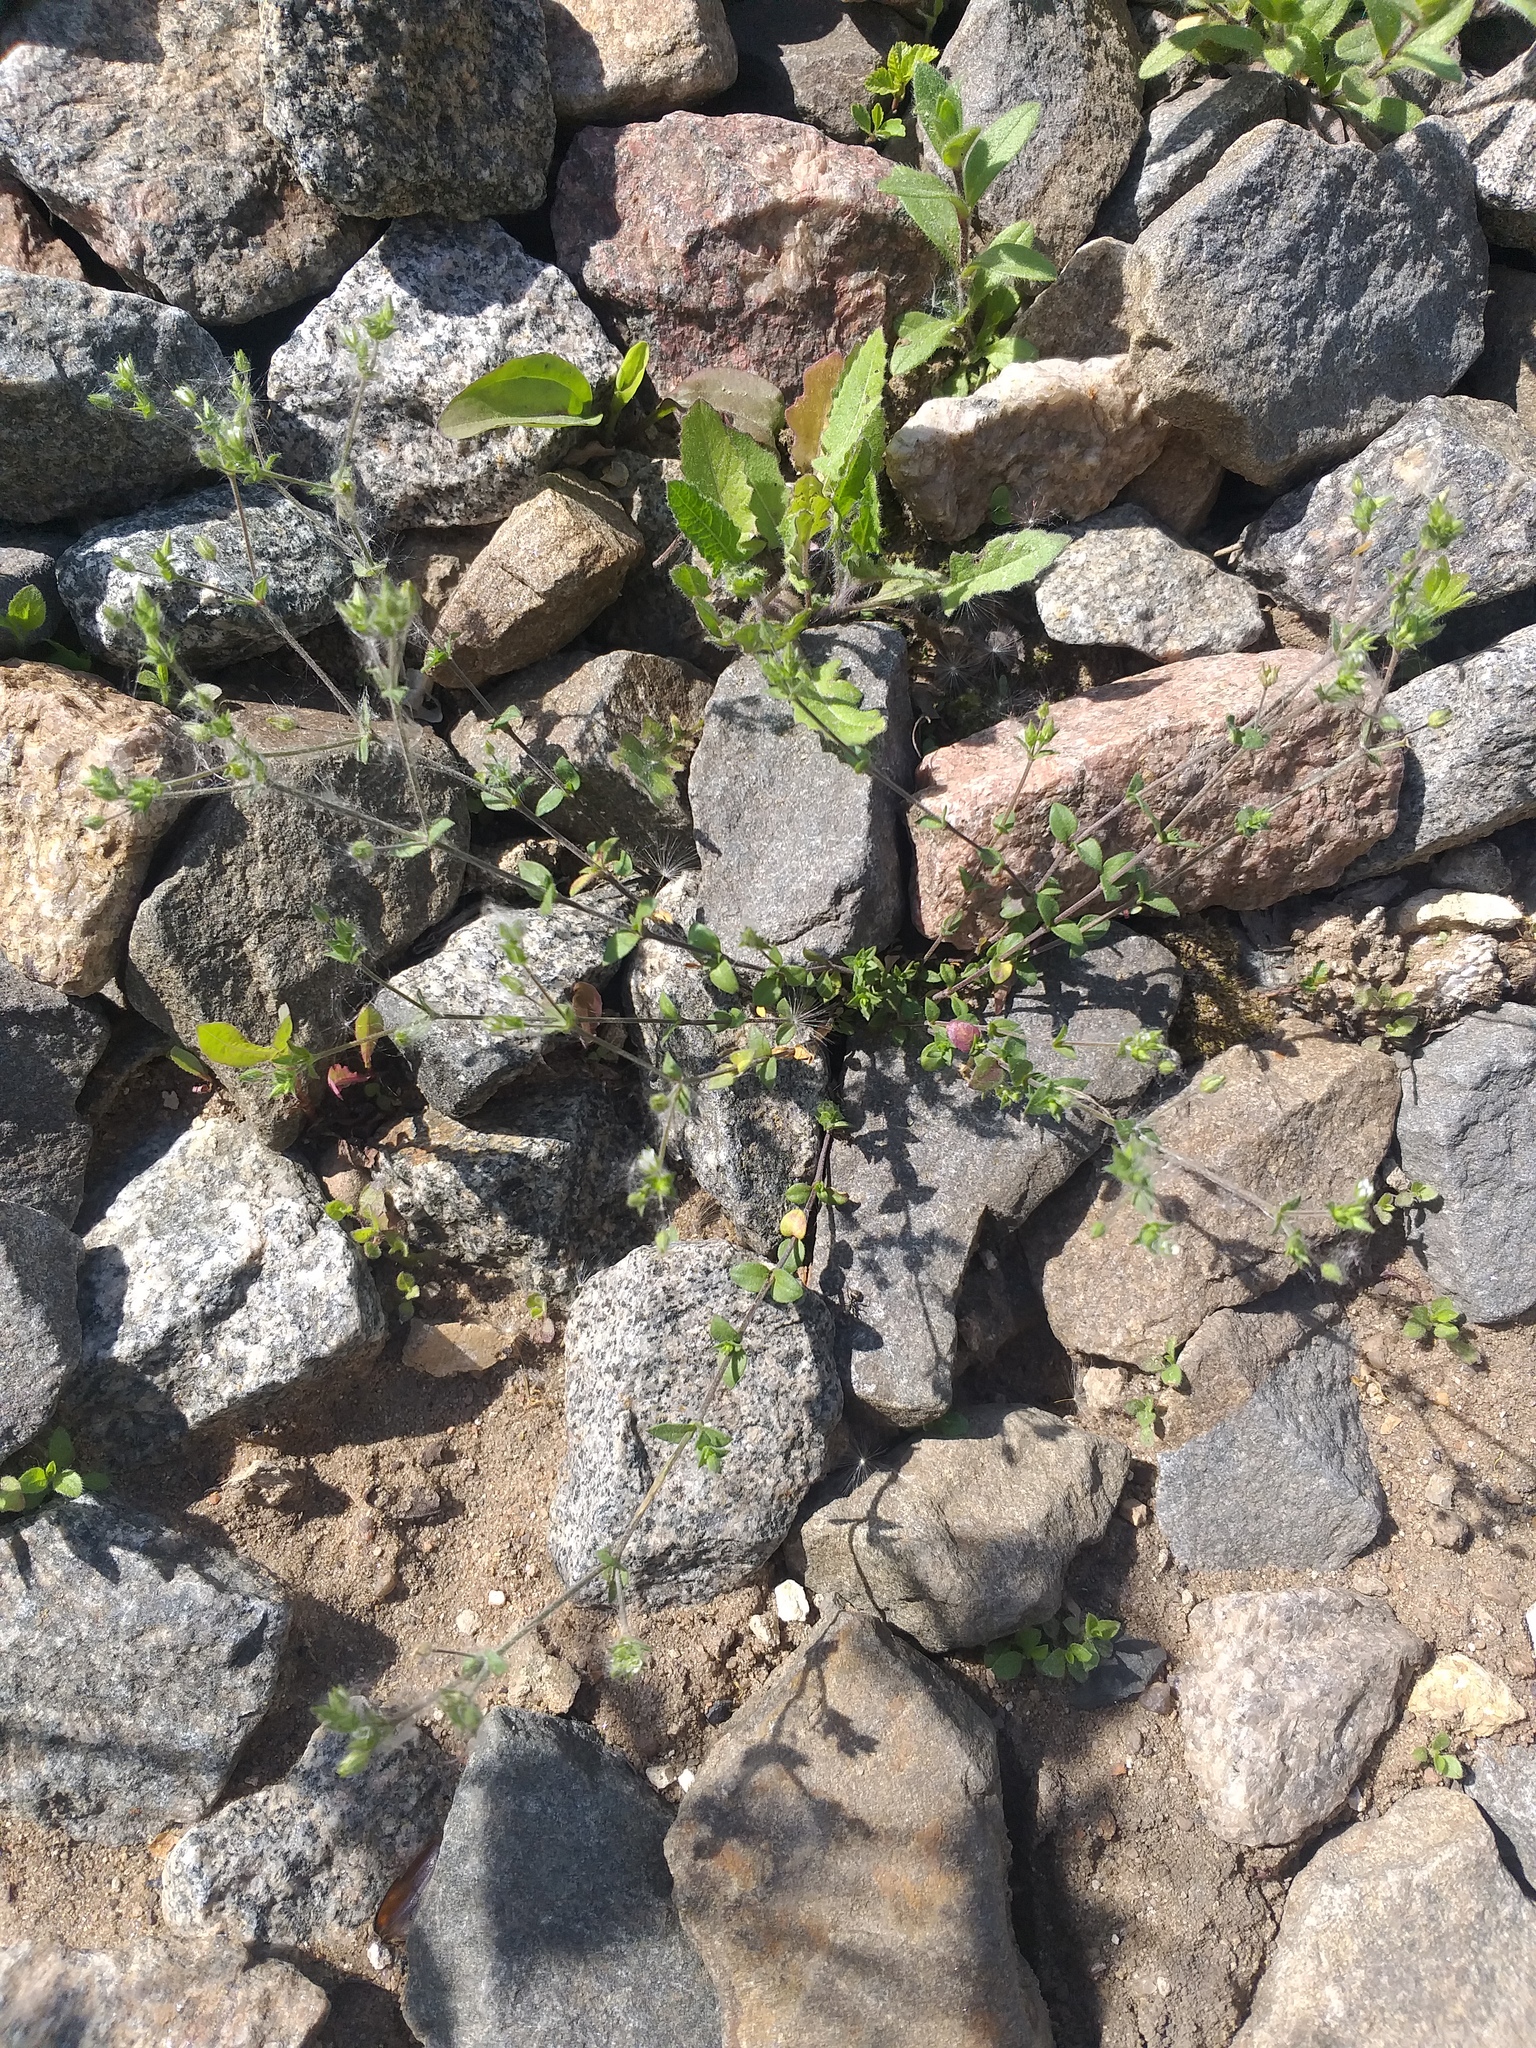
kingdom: Plantae
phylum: Tracheophyta
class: Magnoliopsida
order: Caryophyllales
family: Caryophyllaceae
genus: Arenaria
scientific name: Arenaria serpyllifolia
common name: Thyme-leaved sandwort
